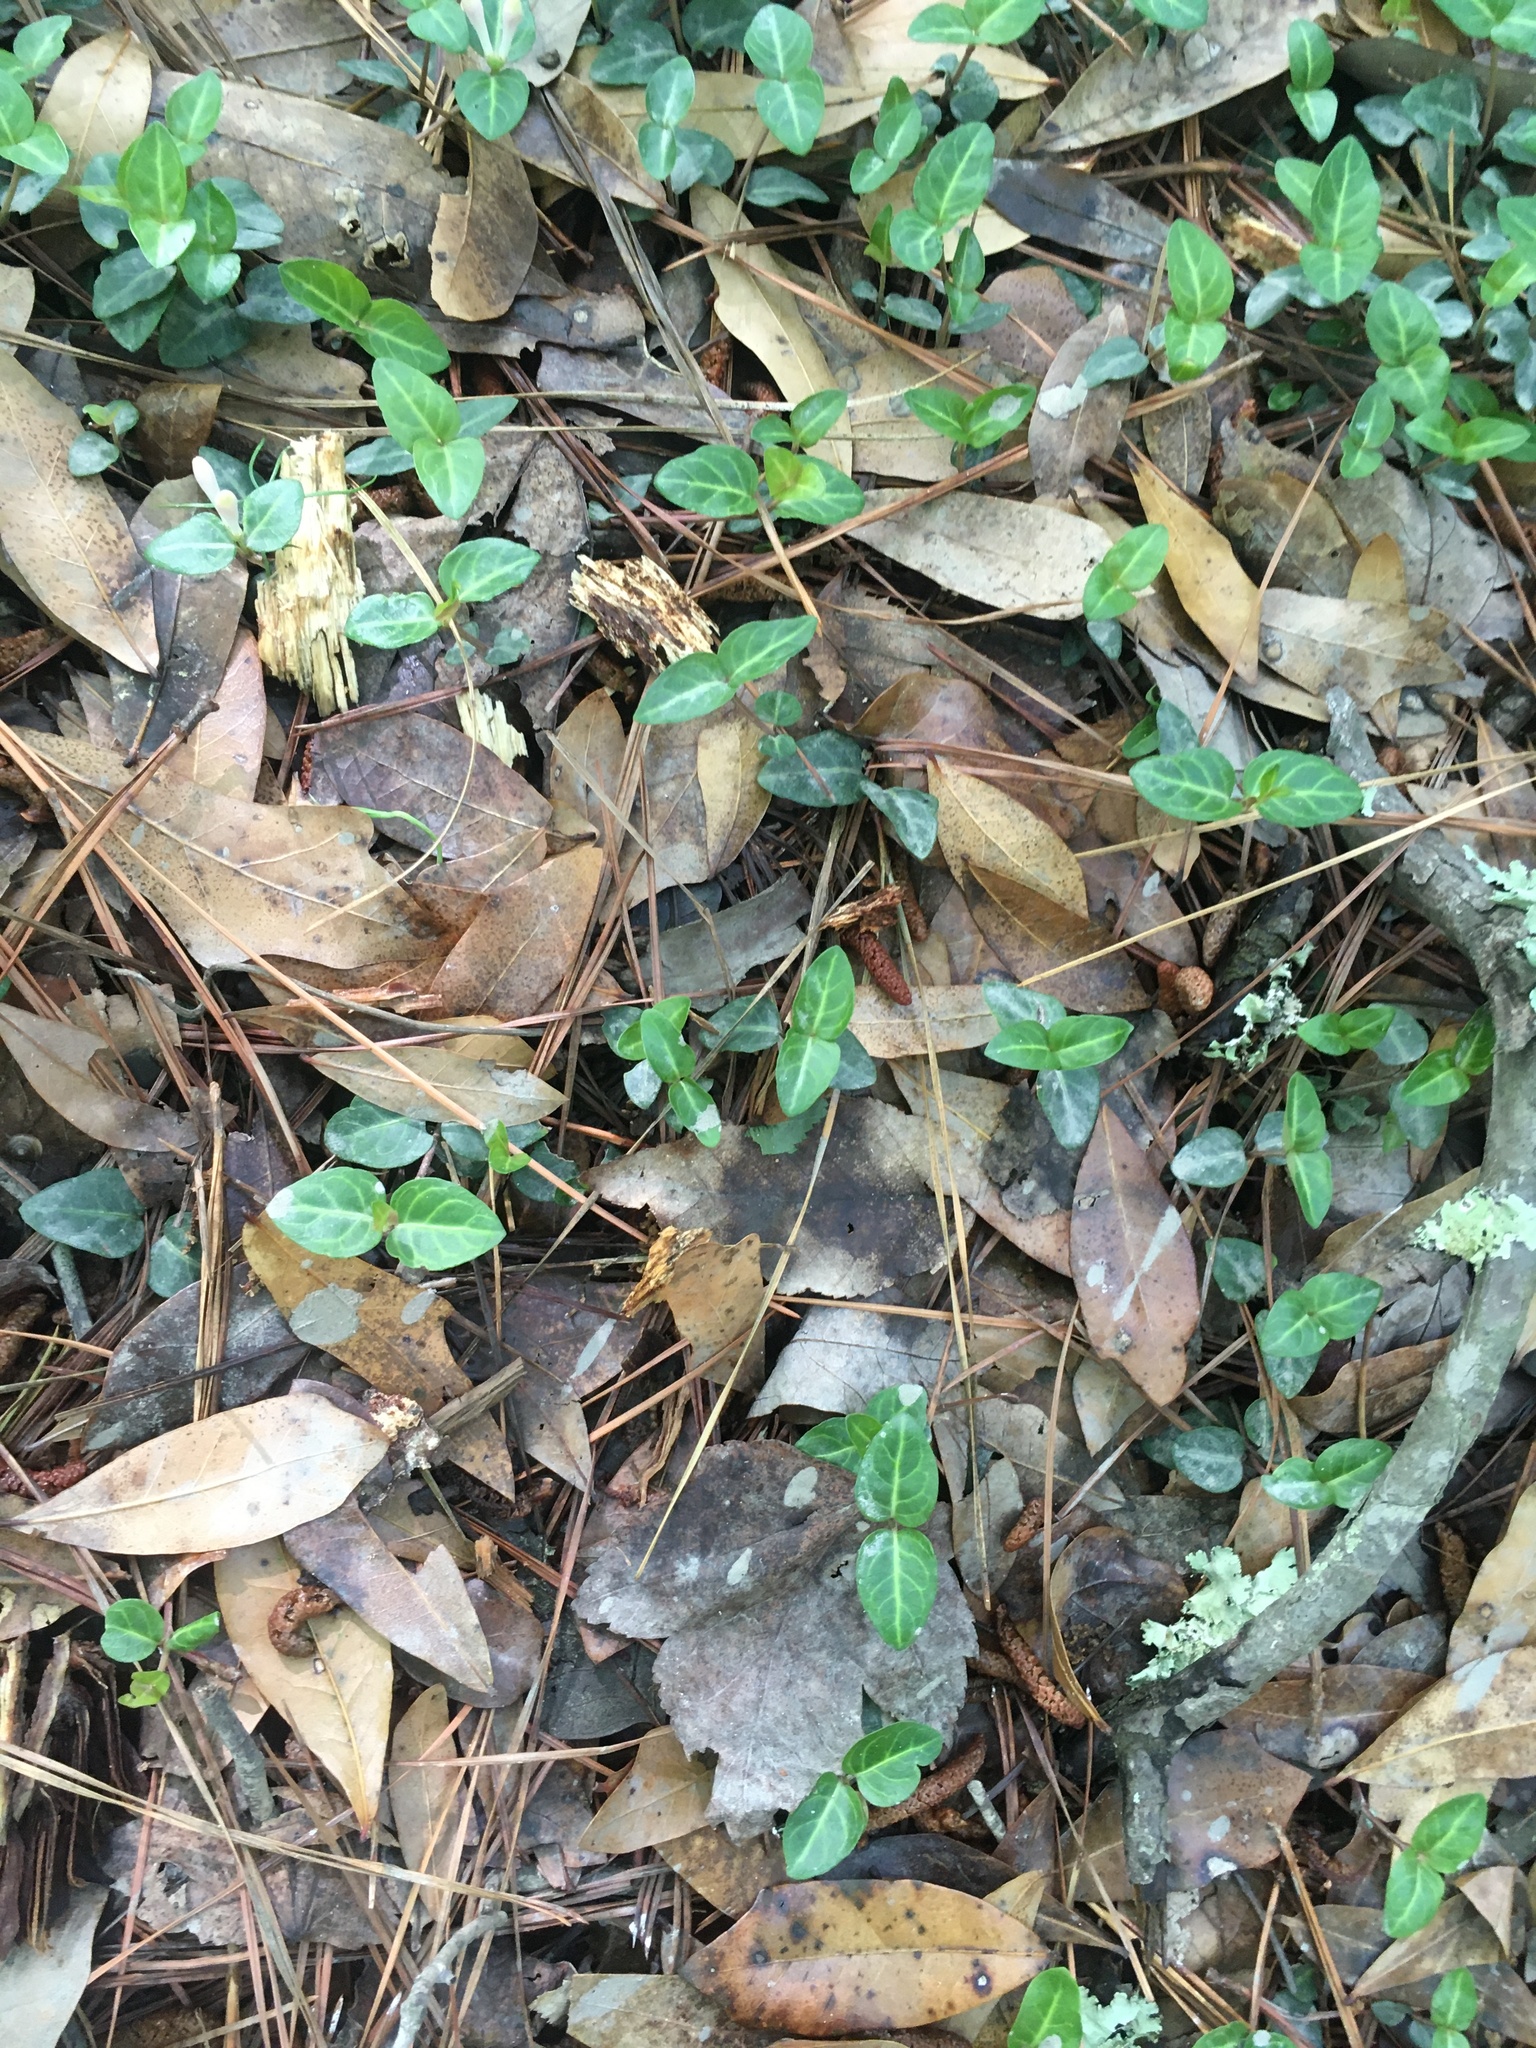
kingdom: Plantae
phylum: Tracheophyta
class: Magnoliopsida
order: Gentianales
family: Rubiaceae
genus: Mitchella
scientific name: Mitchella repens
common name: Partridge-berry
